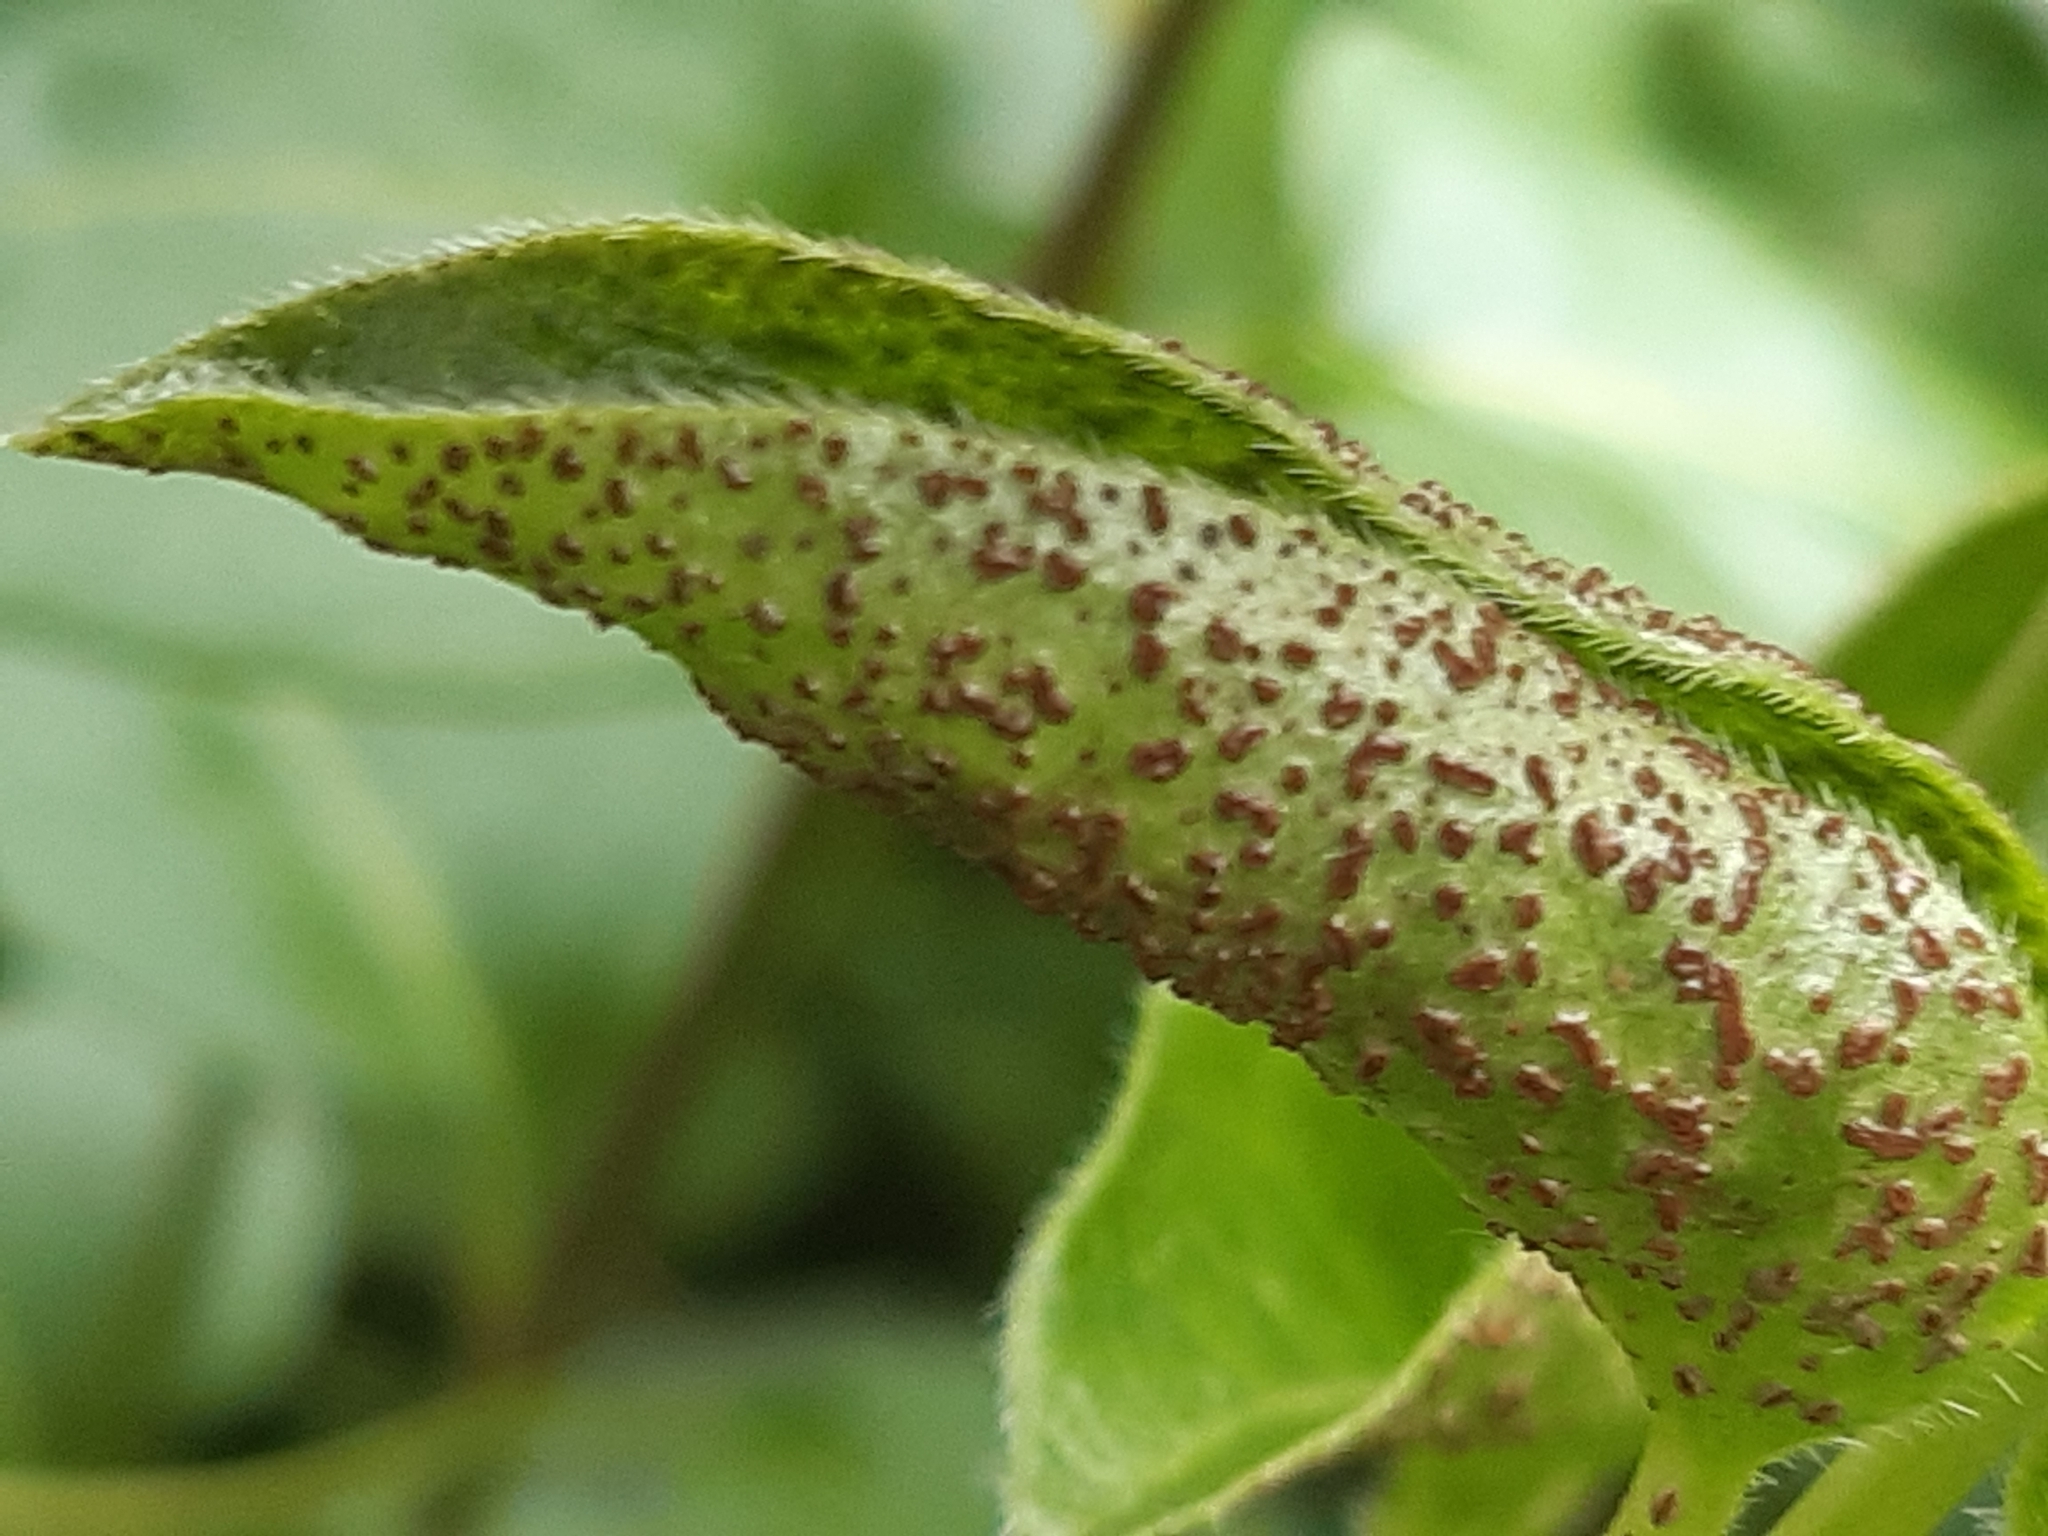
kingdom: Fungi
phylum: Basidiomycota
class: Pucciniomycetes
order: Pucciniales
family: Pucciniaceae
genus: Puccinia
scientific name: Puccinia vincae
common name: Periwinkle rust
